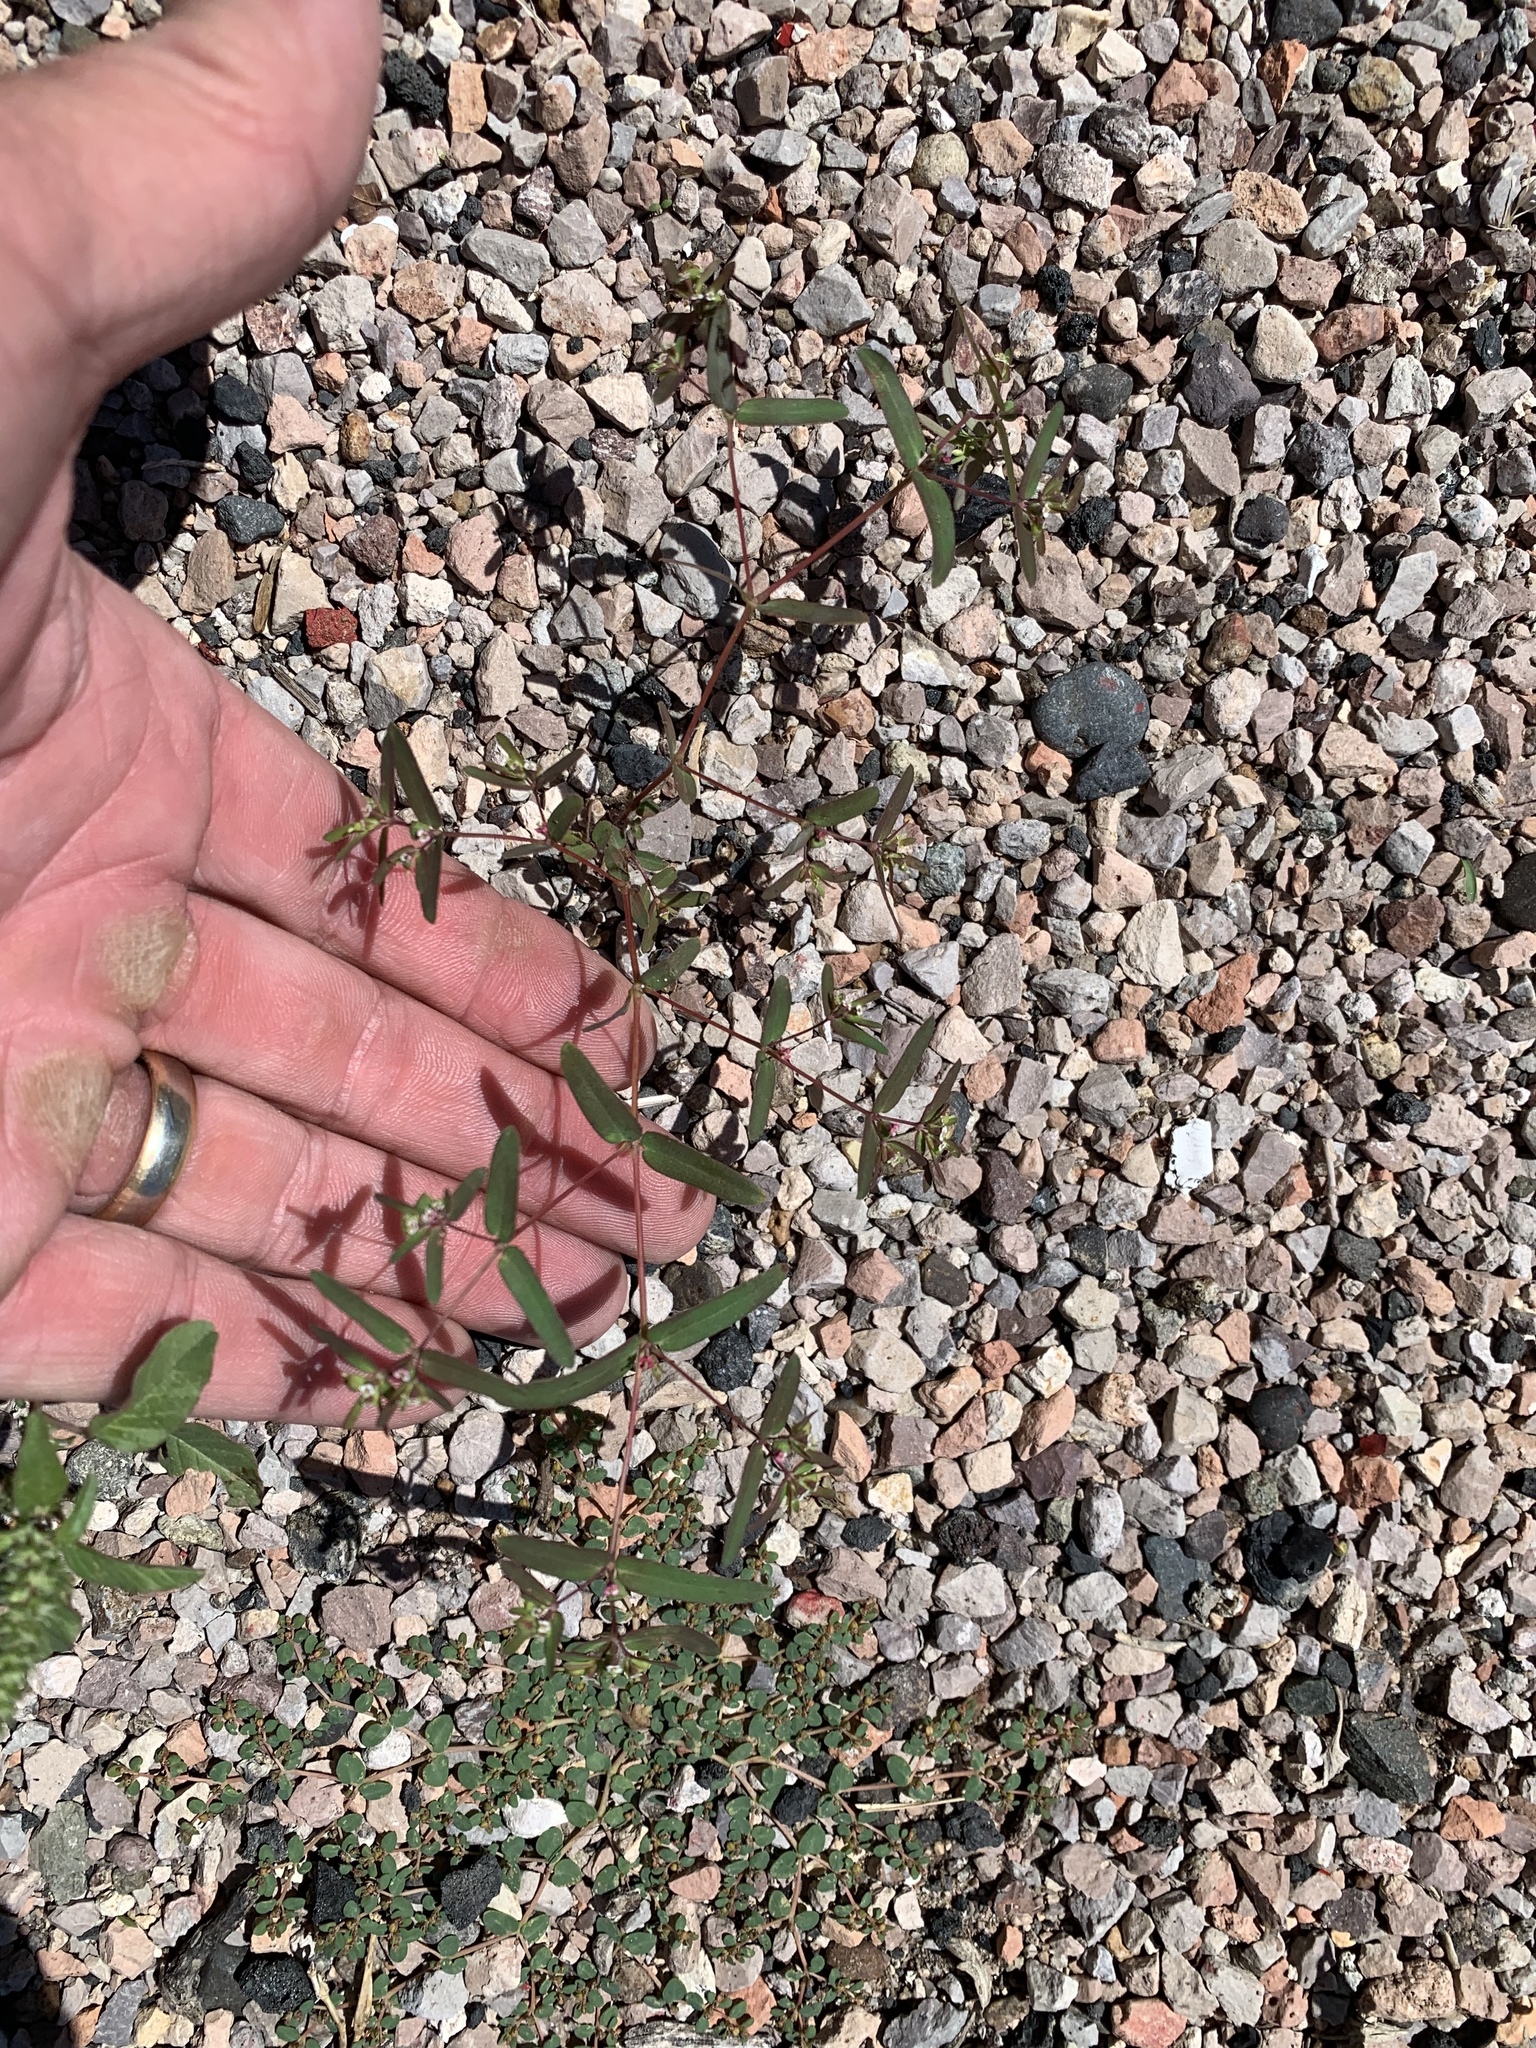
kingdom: Plantae
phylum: Tracheophyta
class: Magnoliopsida
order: Malpighiales
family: Euphorbiaceae
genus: Euphorbia
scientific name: Euphorbia hyssopifolia
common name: Hyssopleaf sandmat
